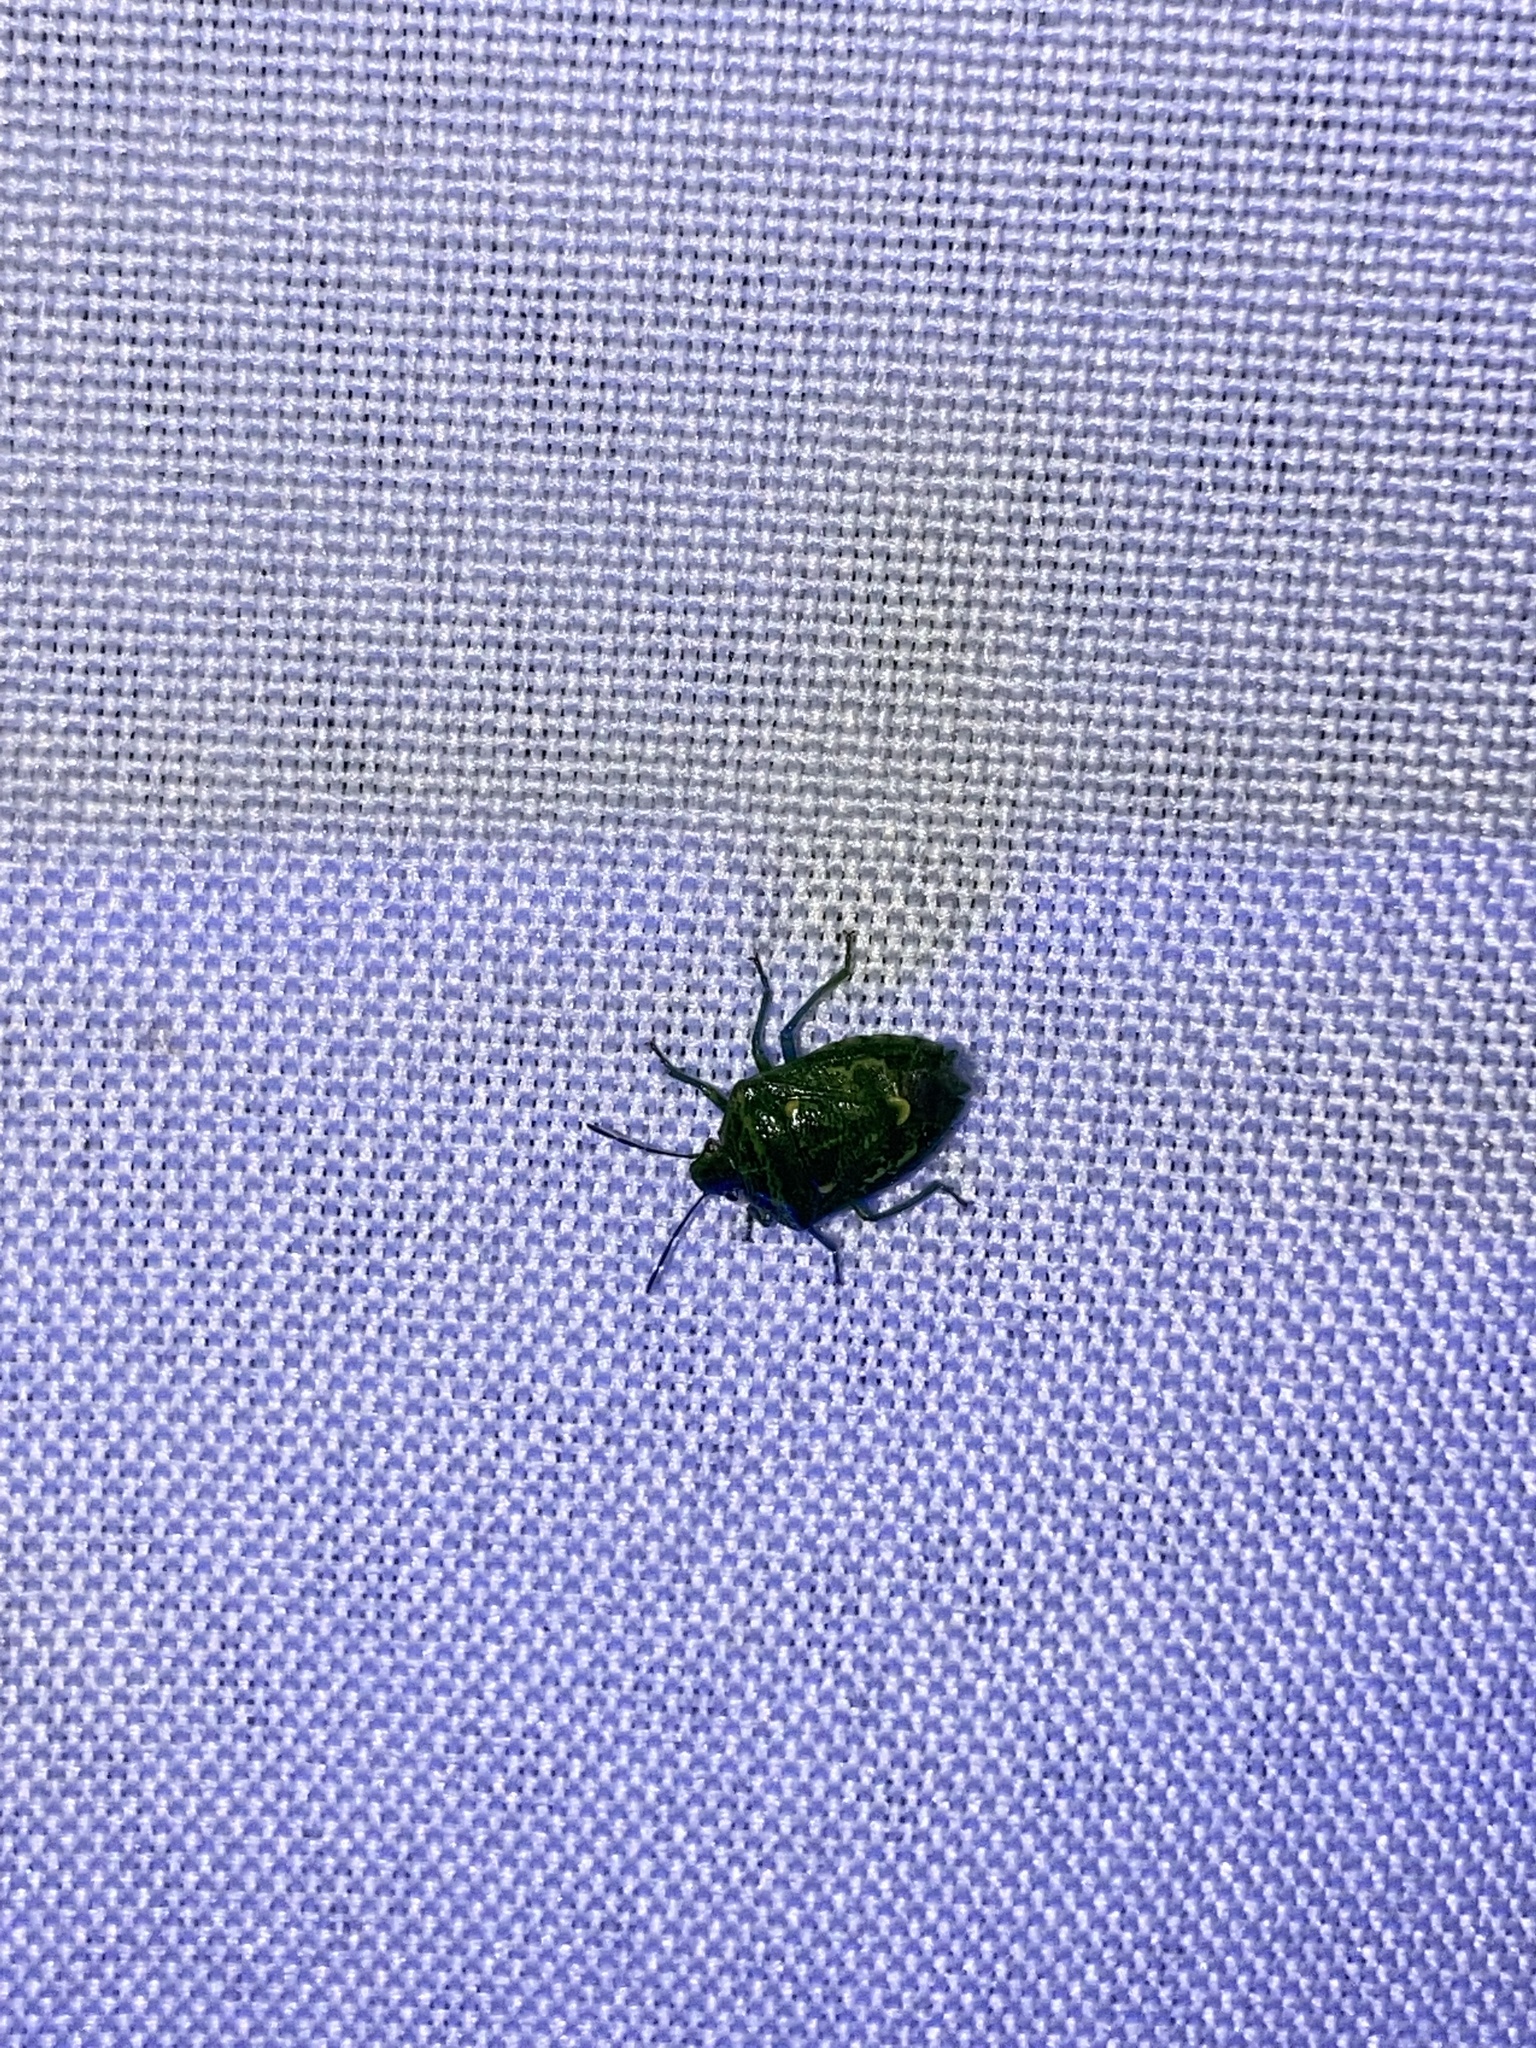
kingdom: Animalia
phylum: Arthropoda
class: Insecta
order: Hemiptera
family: Pentatomidae
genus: Banasa
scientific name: Banasa euchlora
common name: Cedar berry bug
